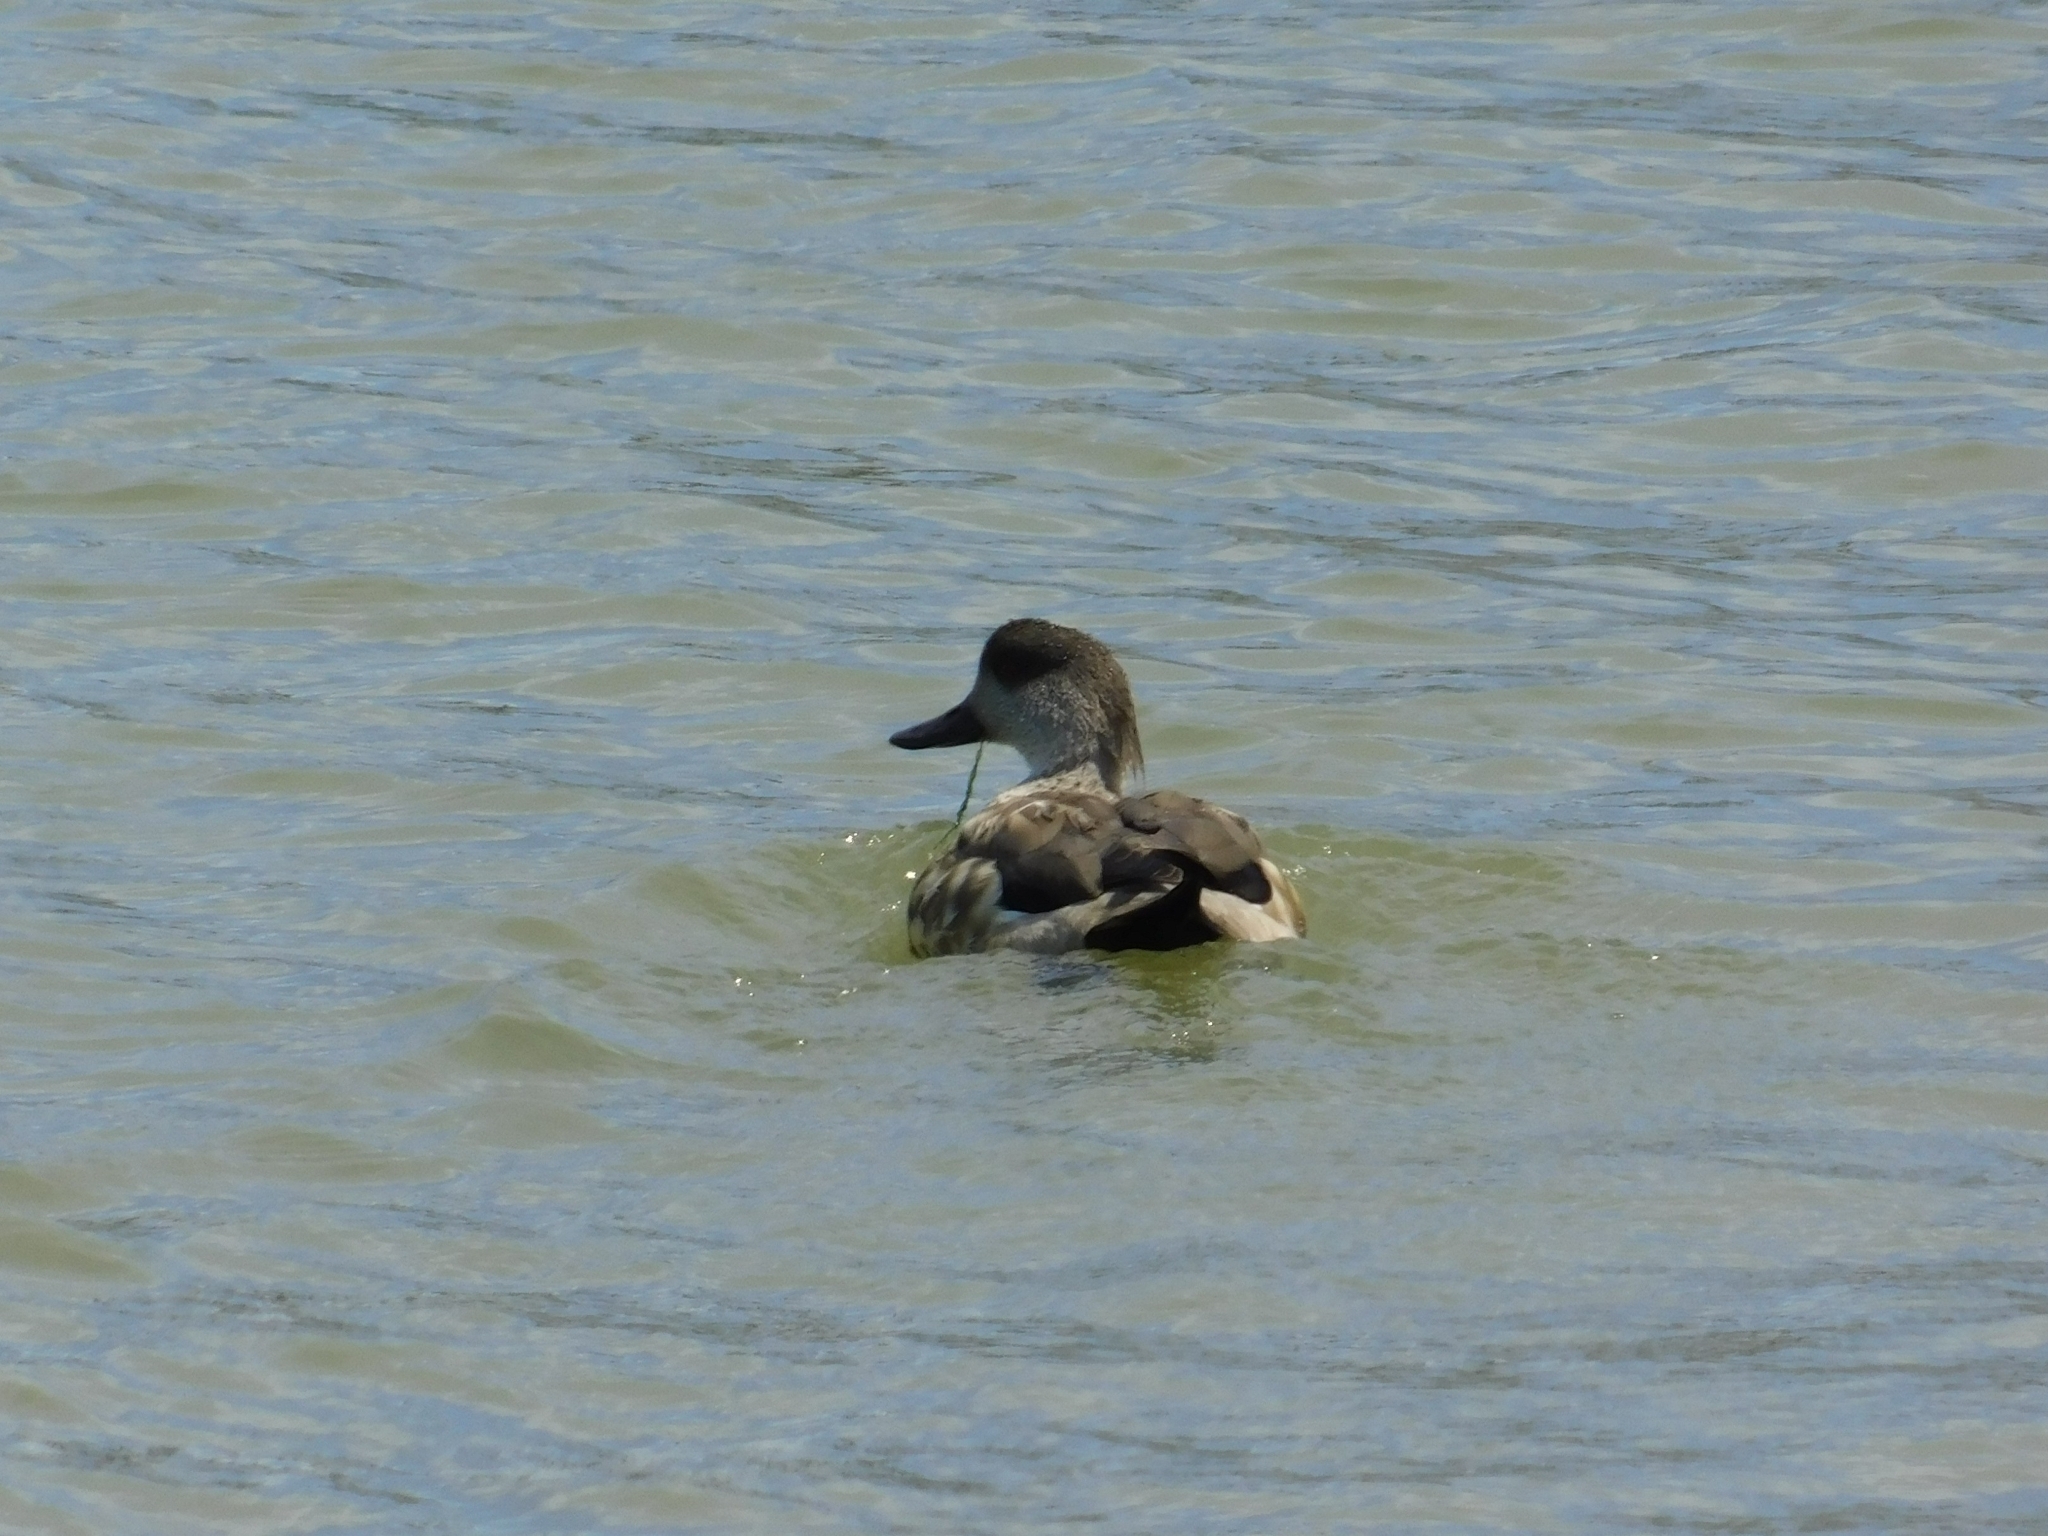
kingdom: Animalia
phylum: Chordata
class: Aves
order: Anseriformes
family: Anatidae
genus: Lophonetta
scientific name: Lophonetta specularioides
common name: Crested duck
